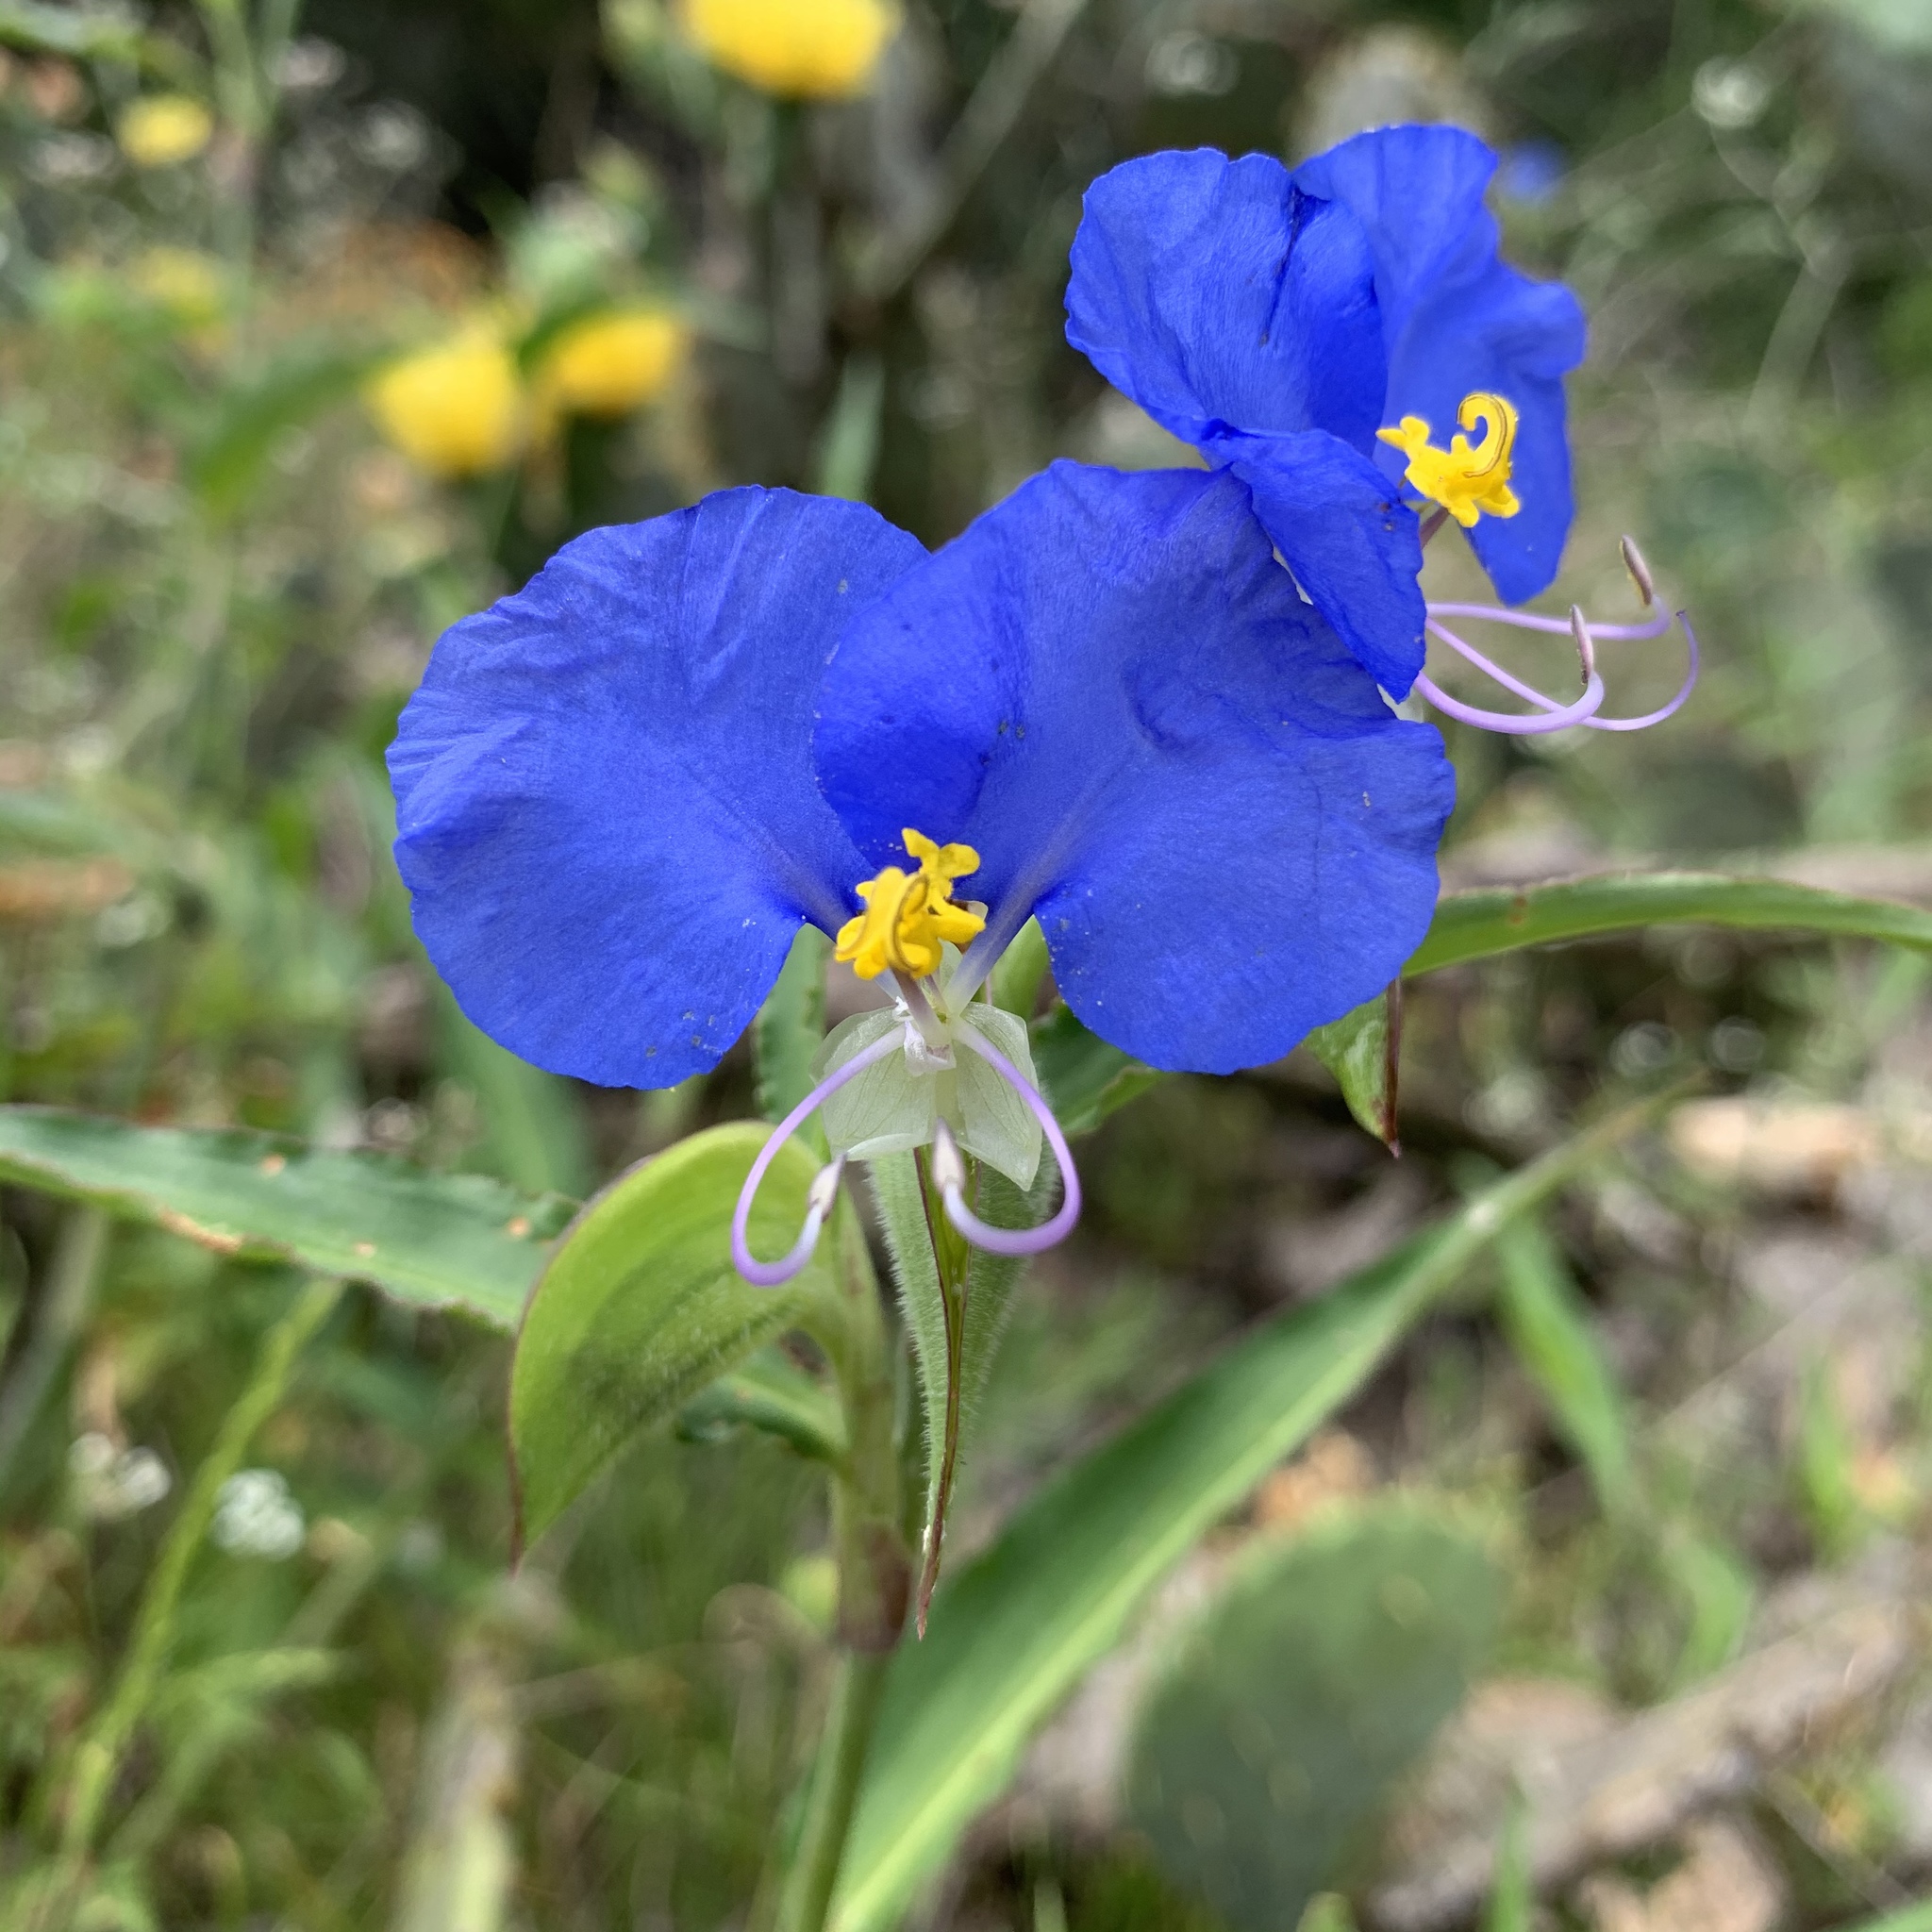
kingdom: Plantae
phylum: Tracheophyta
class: Liliopsida
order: Commelinales
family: Commelinaceae
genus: Commelina
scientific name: Commelina erecta
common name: Blousel blommetjie
